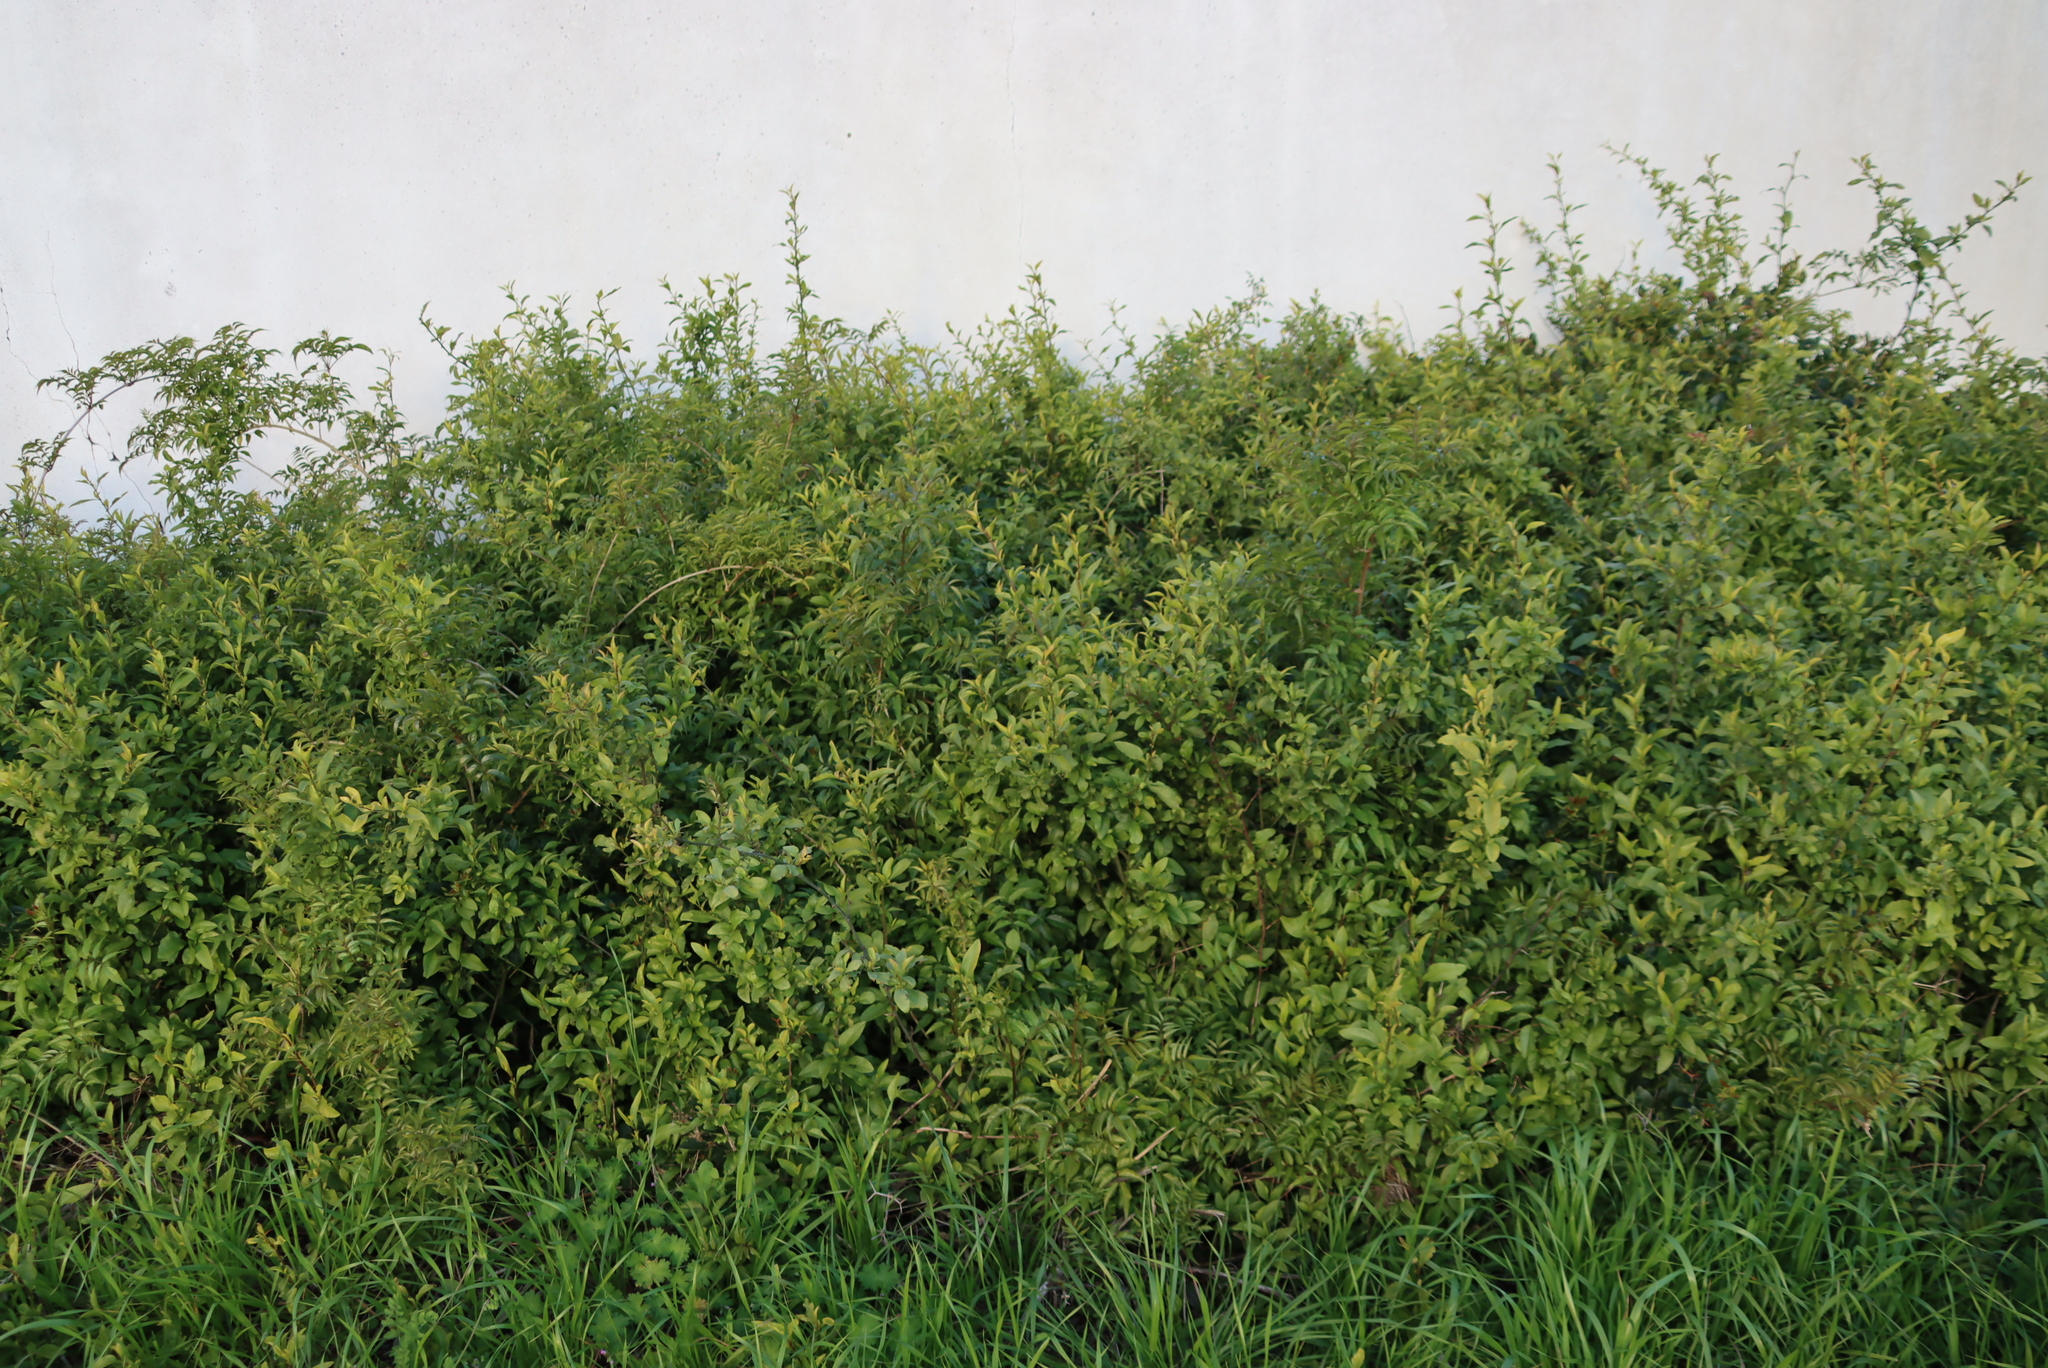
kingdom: Plantae
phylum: Tracheophyta
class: Magnoliopsida
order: Caryophyllales
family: Plumbaginaceae
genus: Plumbago
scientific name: Plumbago auriculata
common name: Cape leadwort
